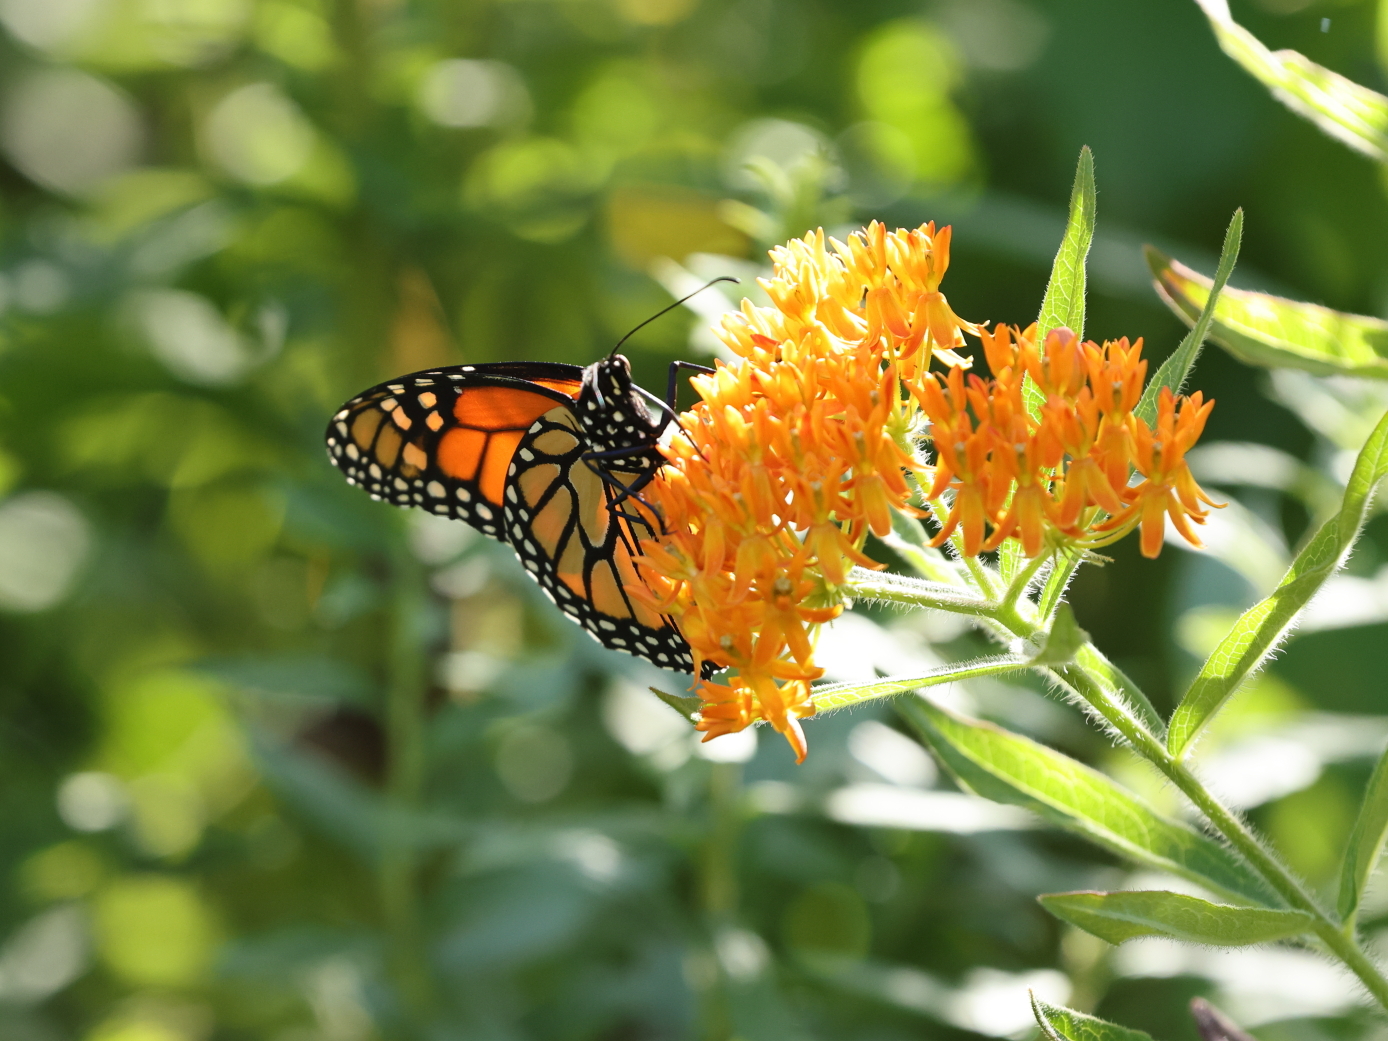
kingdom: Animalia
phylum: Arthropoda
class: Insecta
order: Lepidoptera
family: Nymphalidae
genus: Danaus
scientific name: Danaus plexippus
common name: Monarch
